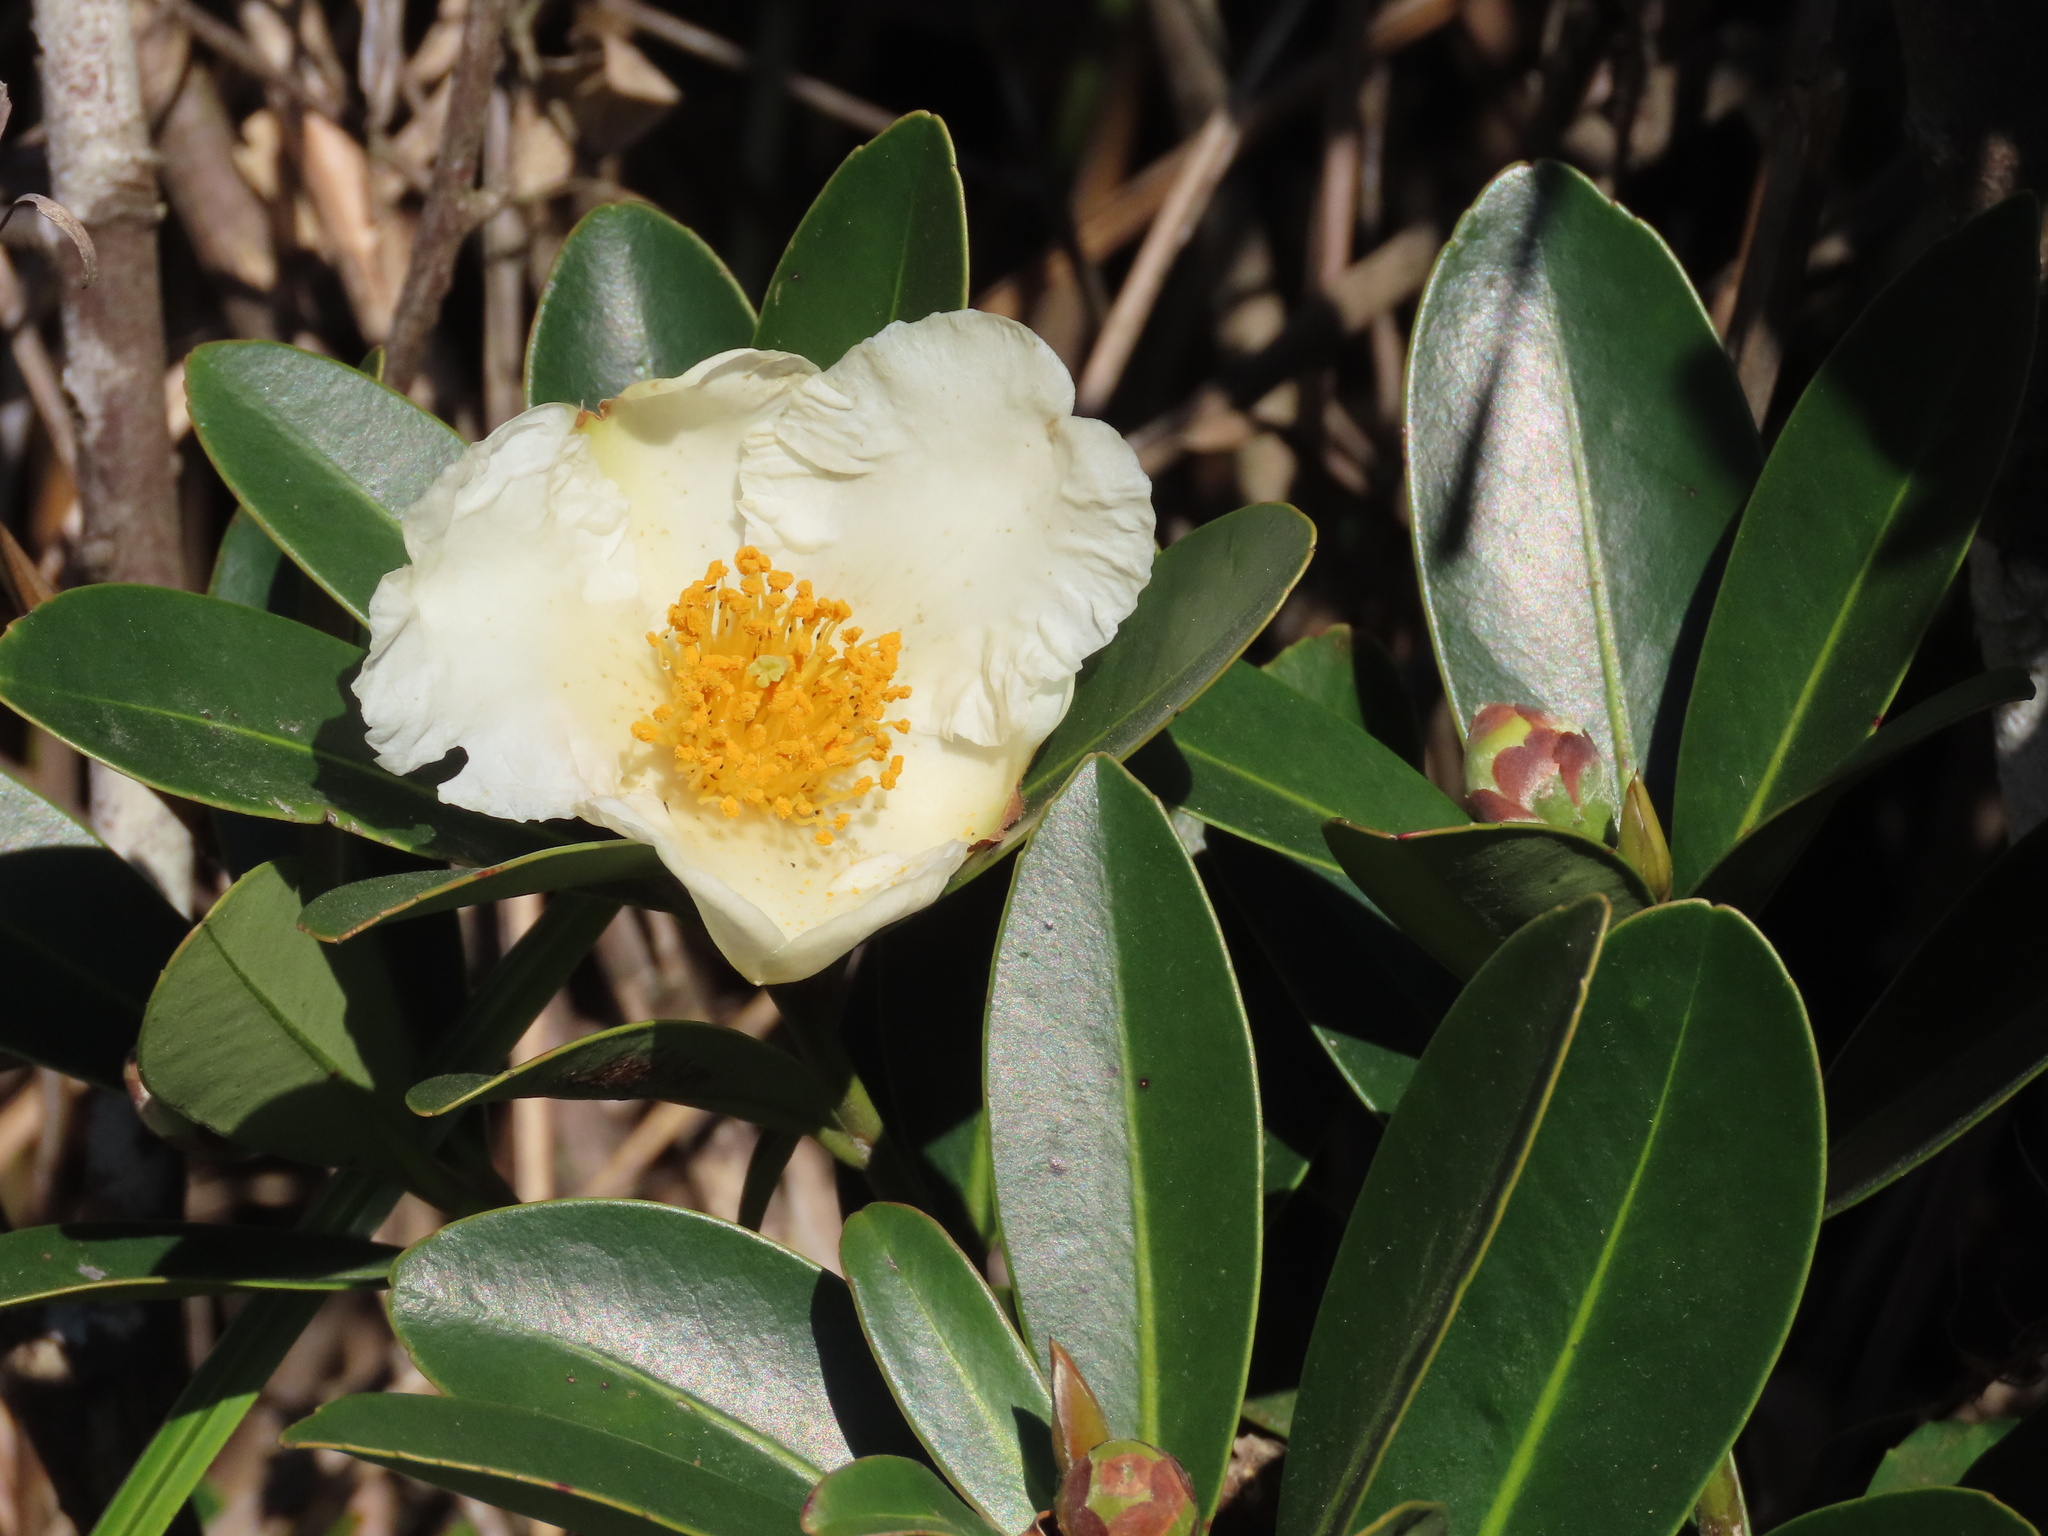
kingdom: Plantae
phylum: Tracheophyta
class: Magnoliopsida
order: Ericales
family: Theaceae
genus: Polyspora
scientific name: Polyspora axillaris
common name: Fried egg tree
